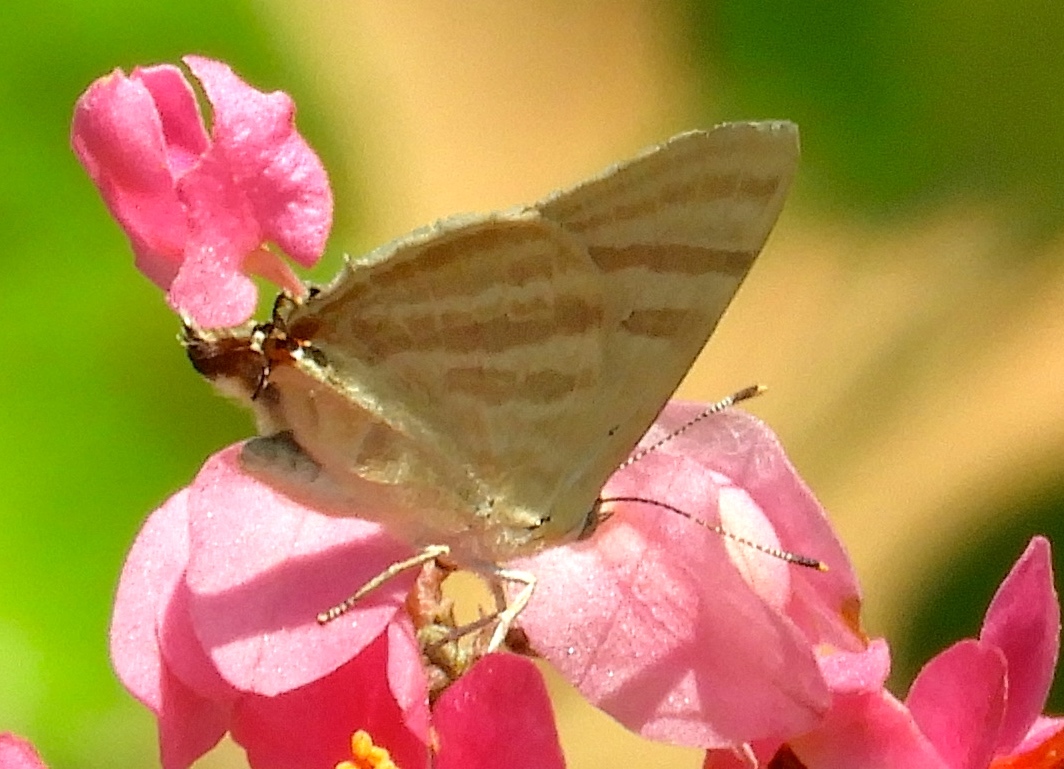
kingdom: Animalia
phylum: Arthropoda
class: Insecta
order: Lepidoptera
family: Lycaenidae
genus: Dolymorpha
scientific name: Dolymorpha jada
